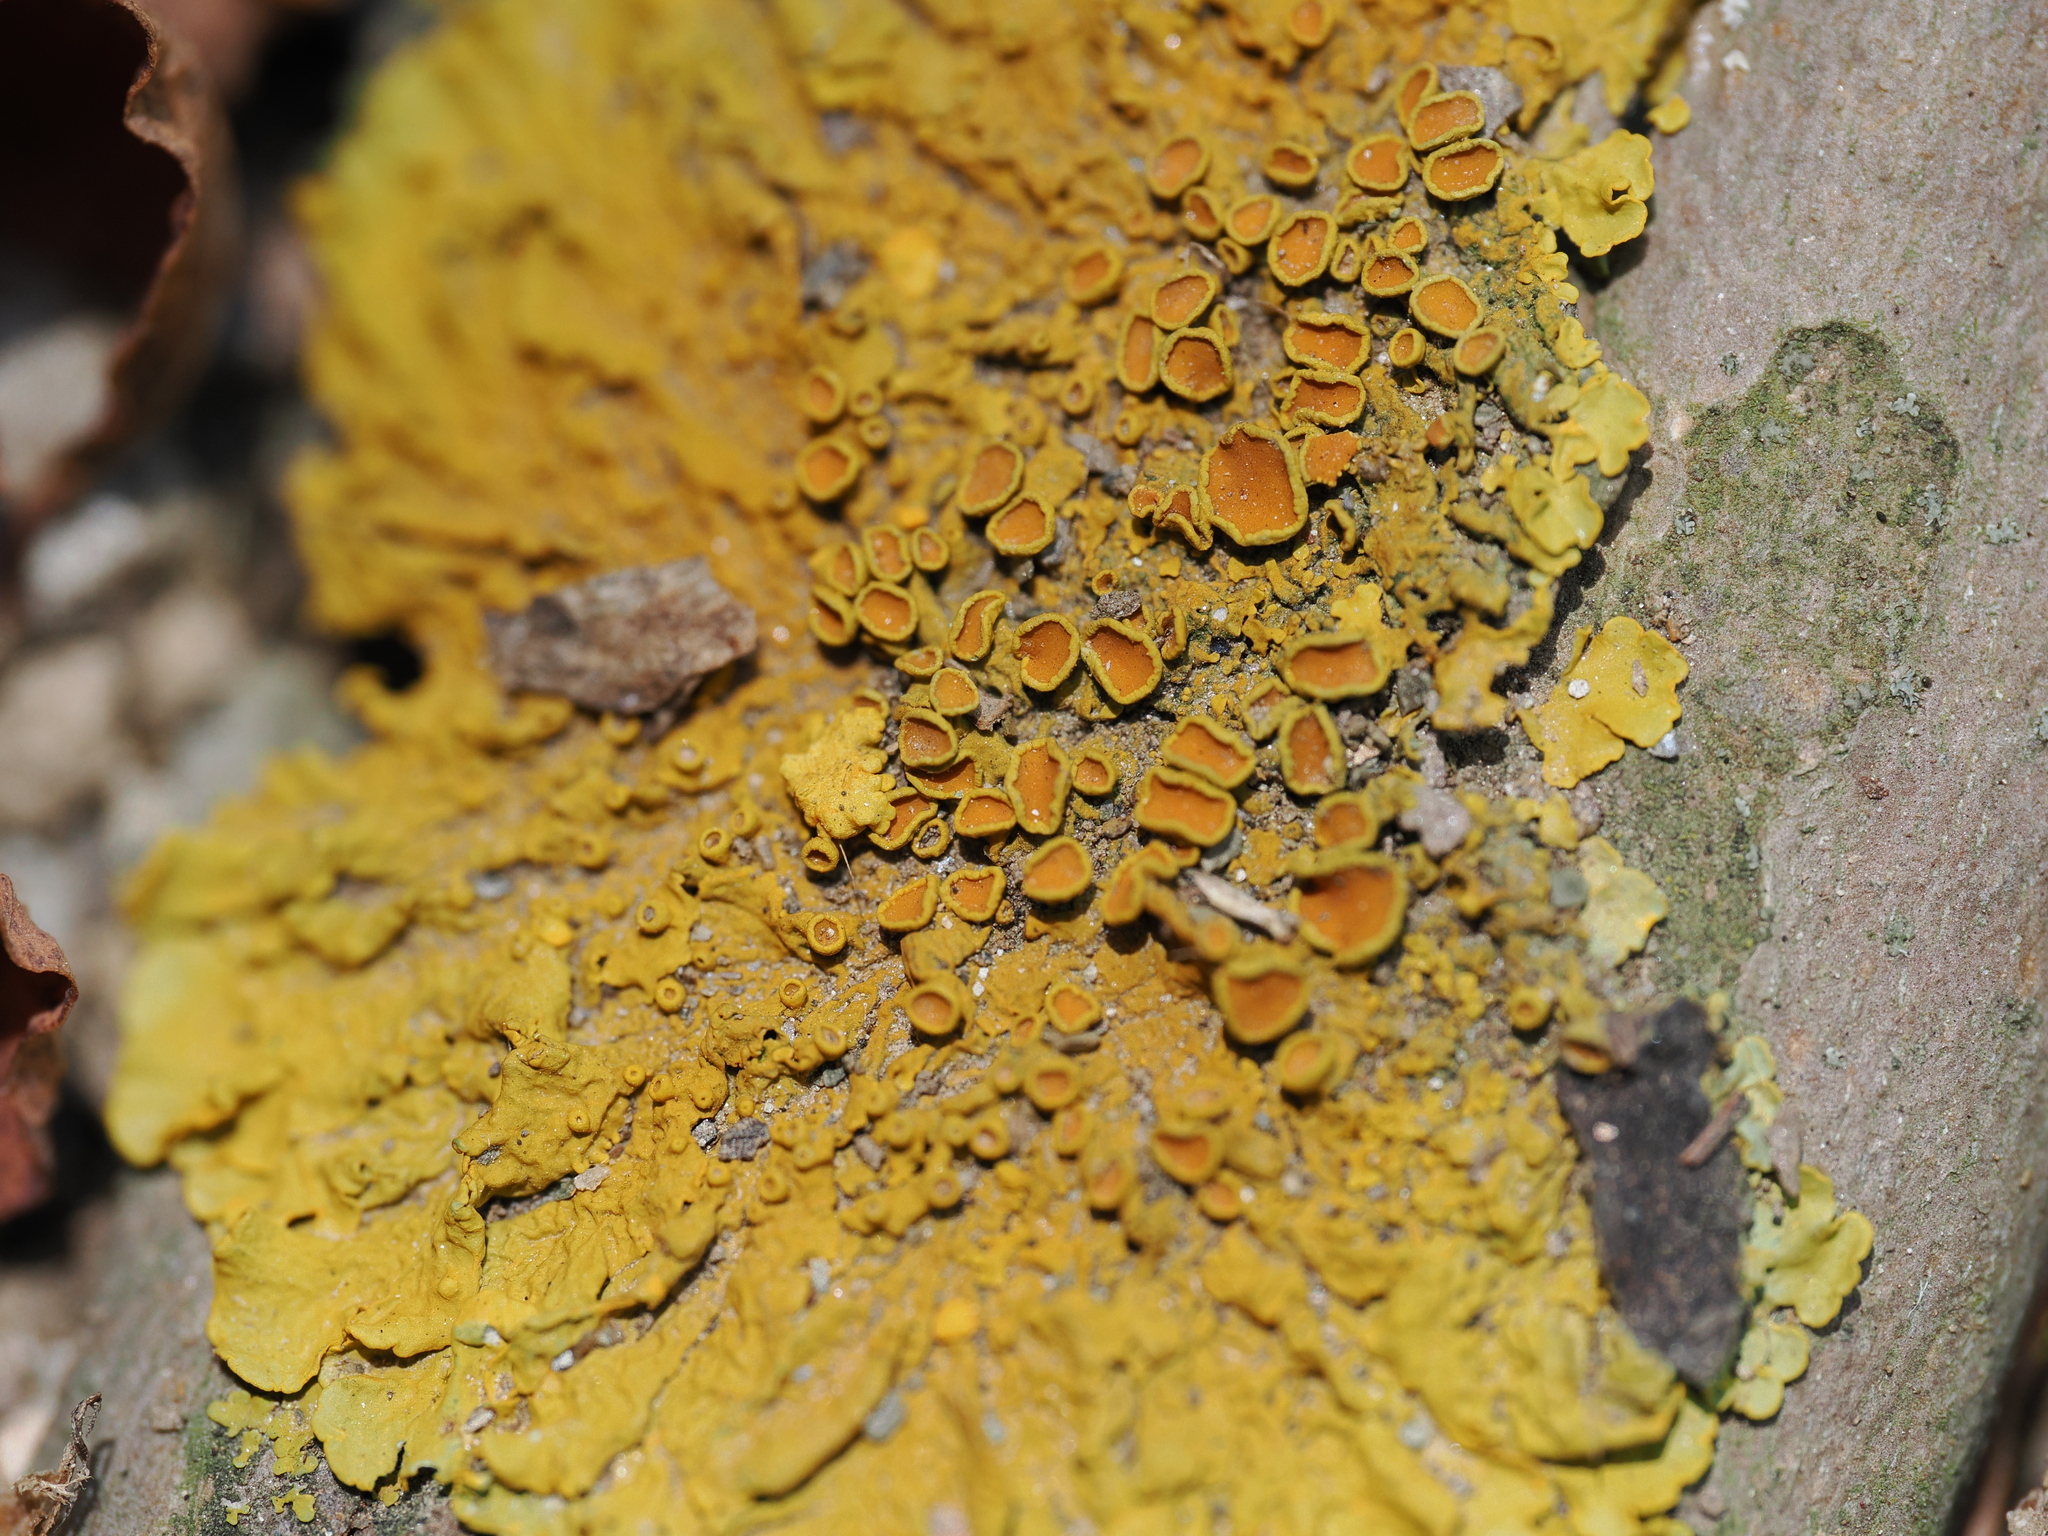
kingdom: Fungi
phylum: Ascomycota
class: Lecanoromycetes
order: Teloschistales
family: Teloschistaceae
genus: Xanthoria
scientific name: Xanthoria parietina
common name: Common orange lichen
